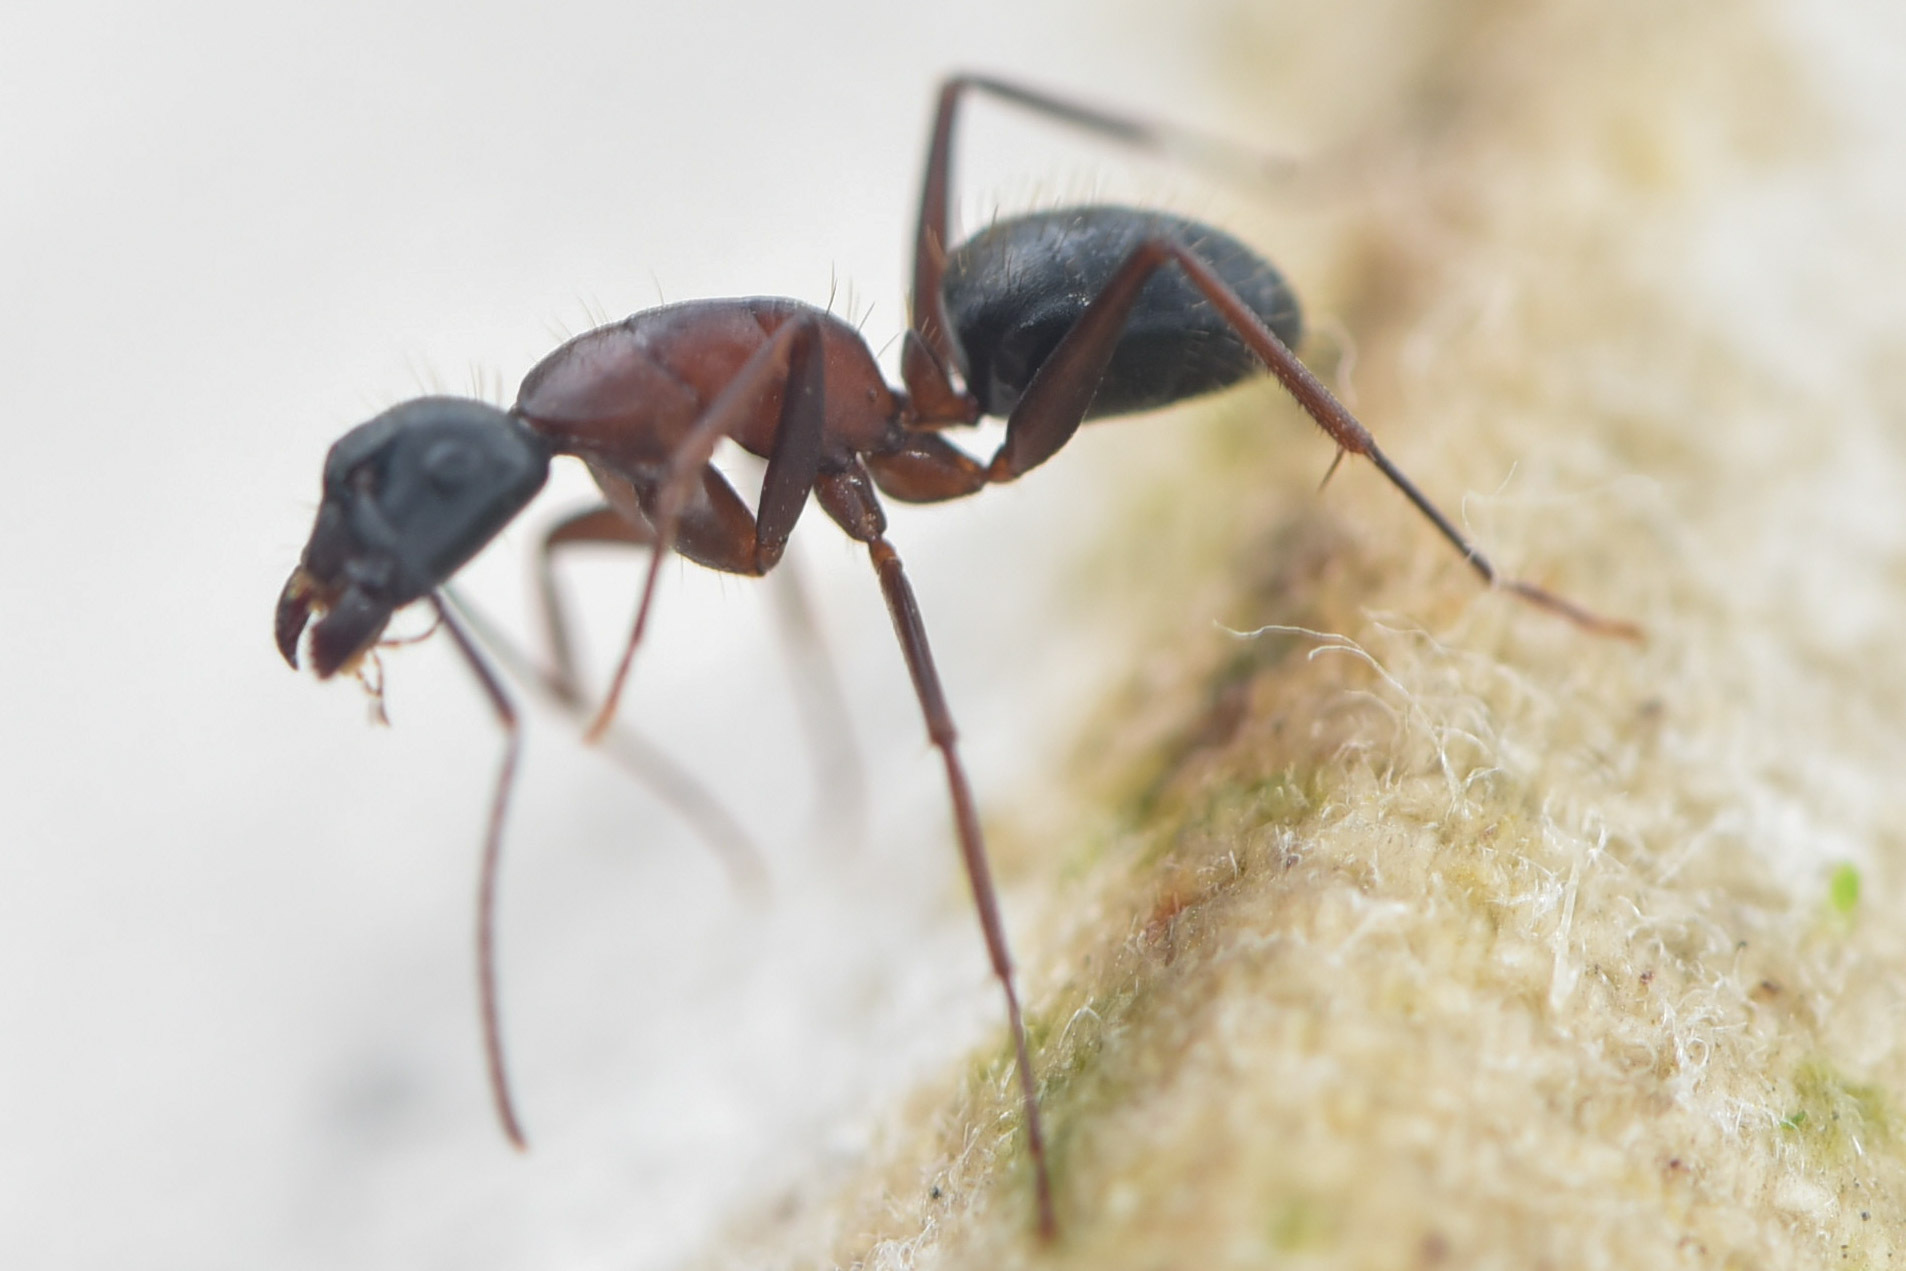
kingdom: Animalia
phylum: Arthropoda
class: Insecta
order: Hymenoptera
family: Formicidae
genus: Camponotus
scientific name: Camponotus vicinus
